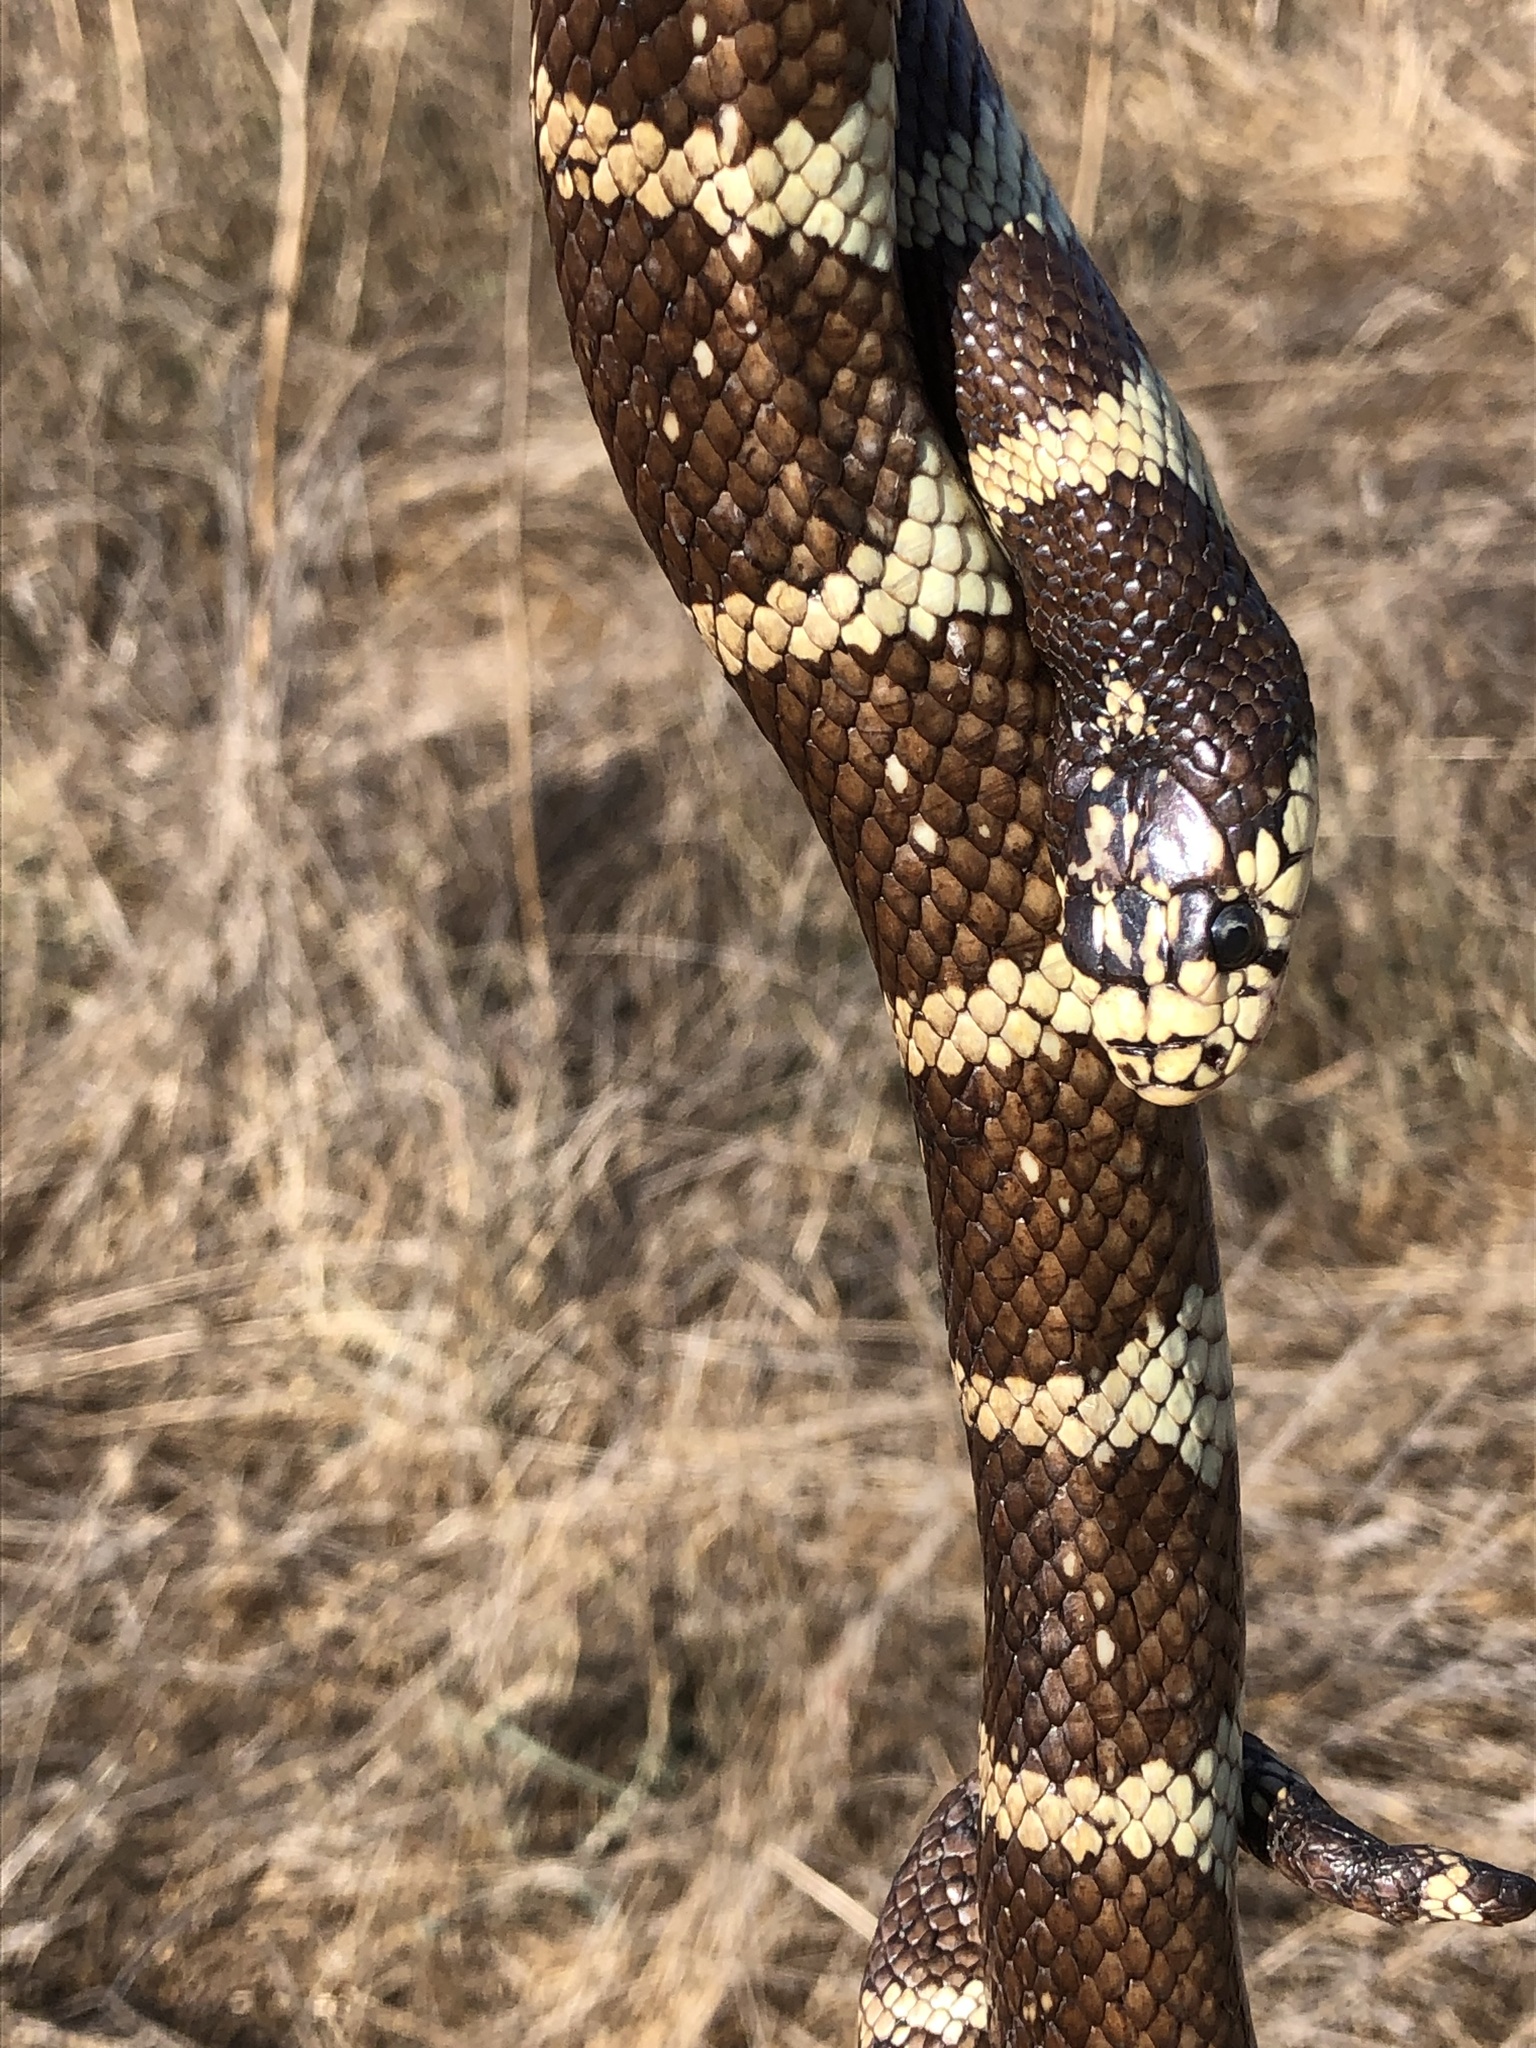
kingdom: Animalia
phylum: Chordata
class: Squamata
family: Colubridae
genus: Lampropeltis
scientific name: Lampropeltis californiae
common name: California kingsnake
